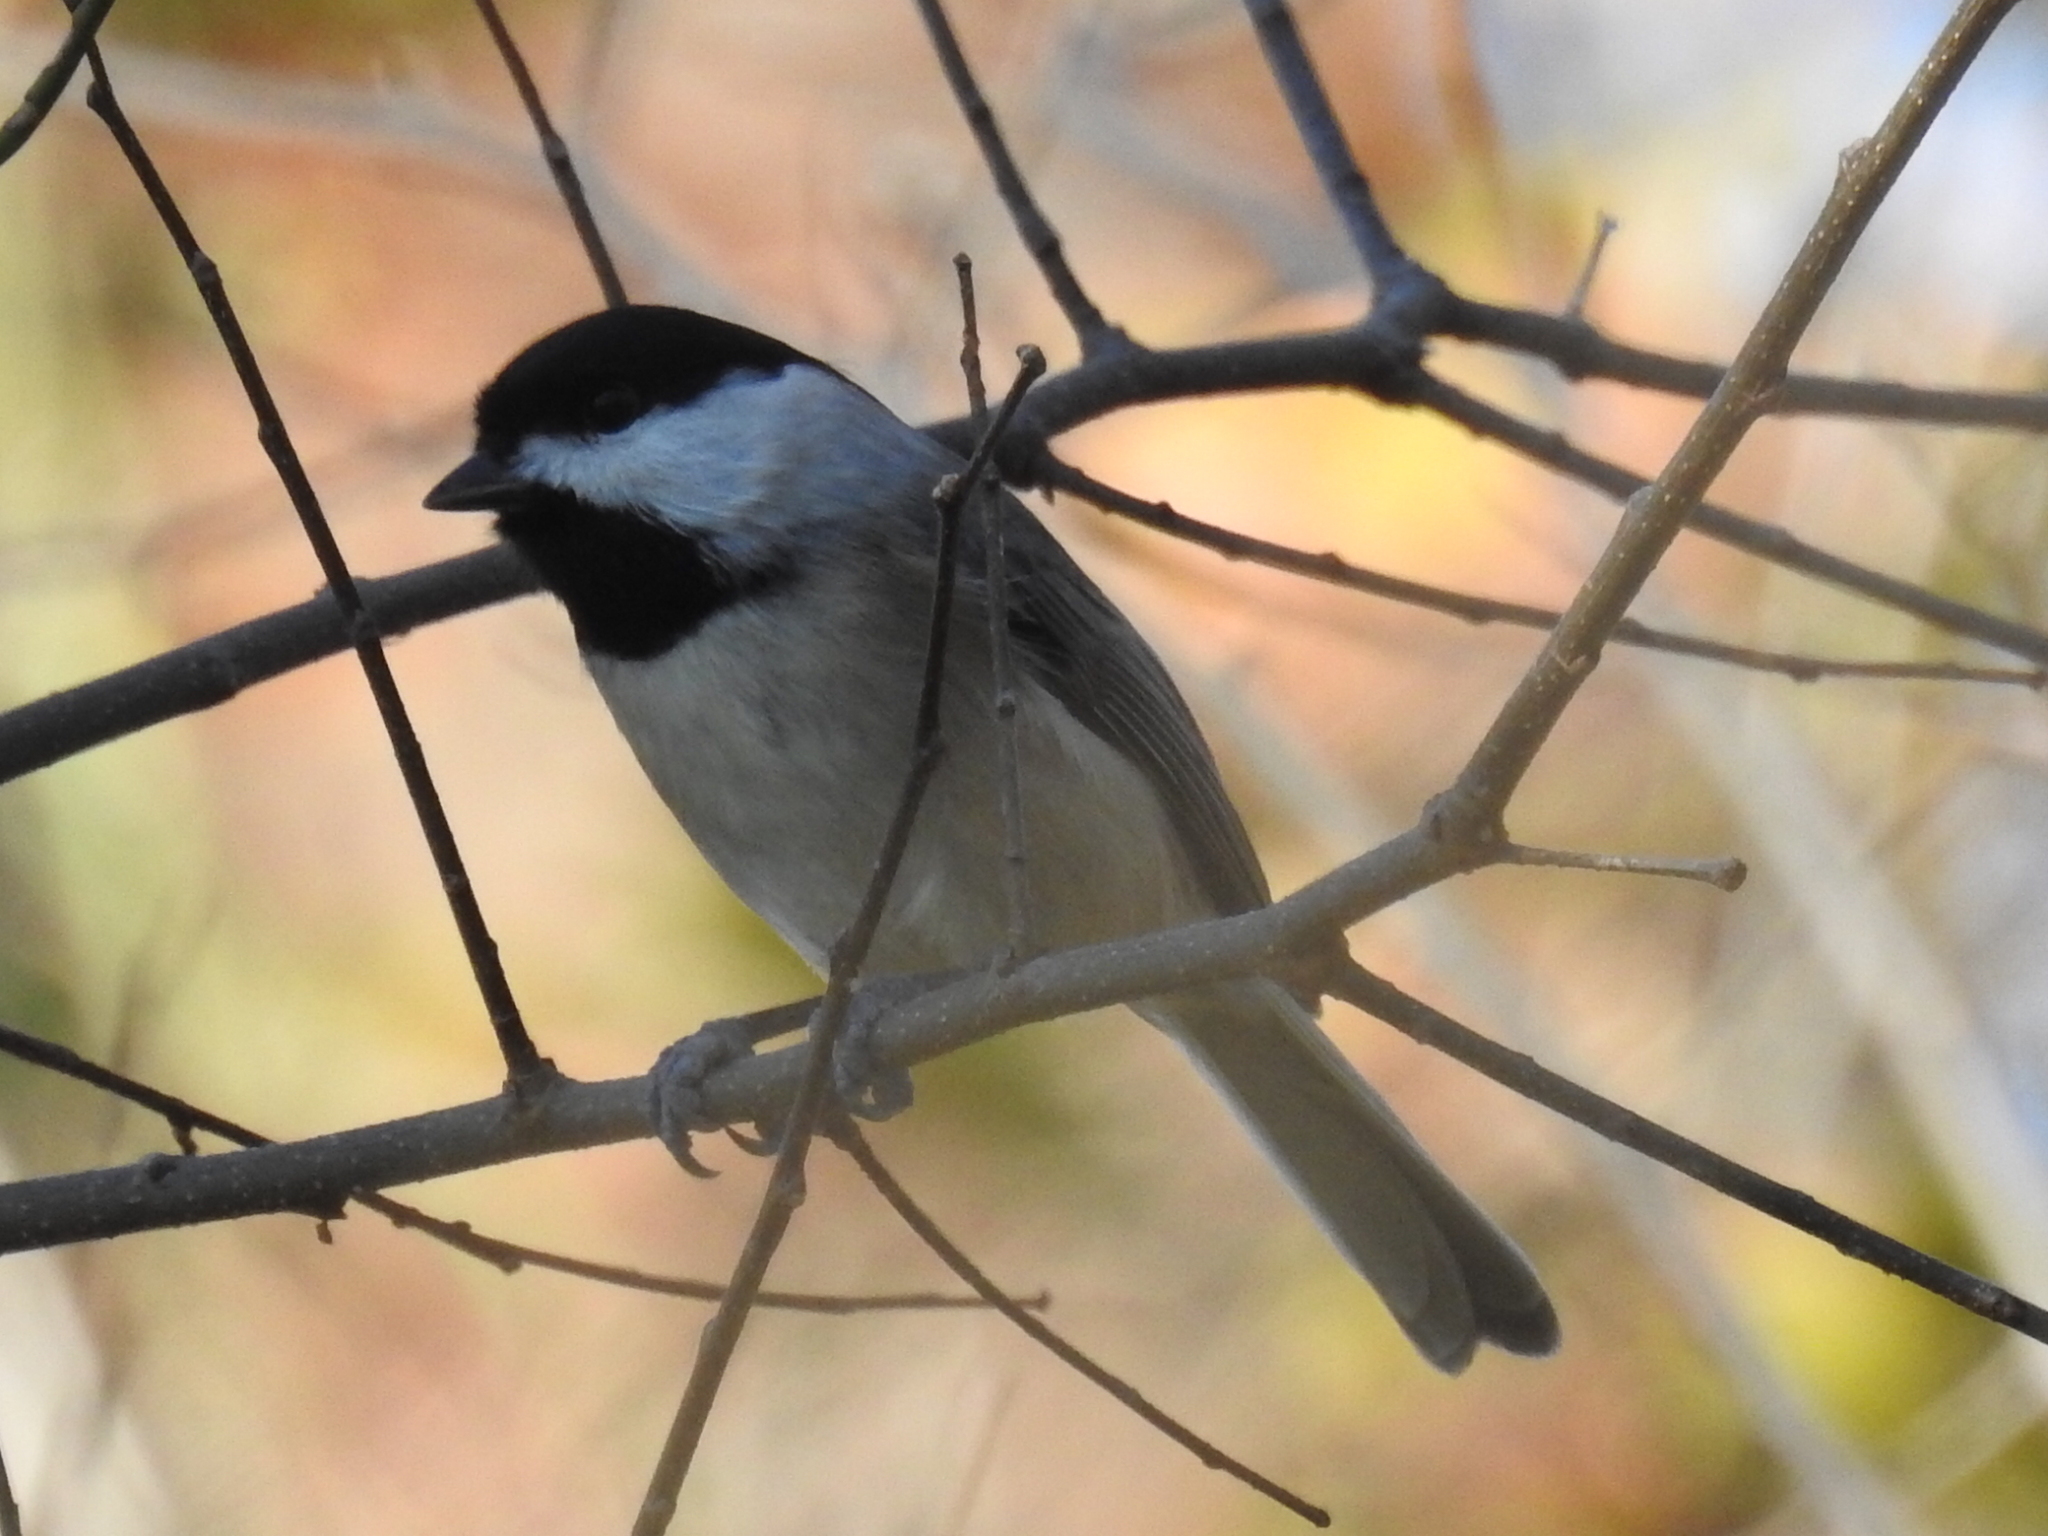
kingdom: Animalia
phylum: Chordata
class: Aves
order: Passeriformes
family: Paridae
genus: Poecile
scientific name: Poecile carolinensis
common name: Carolina chickadee
